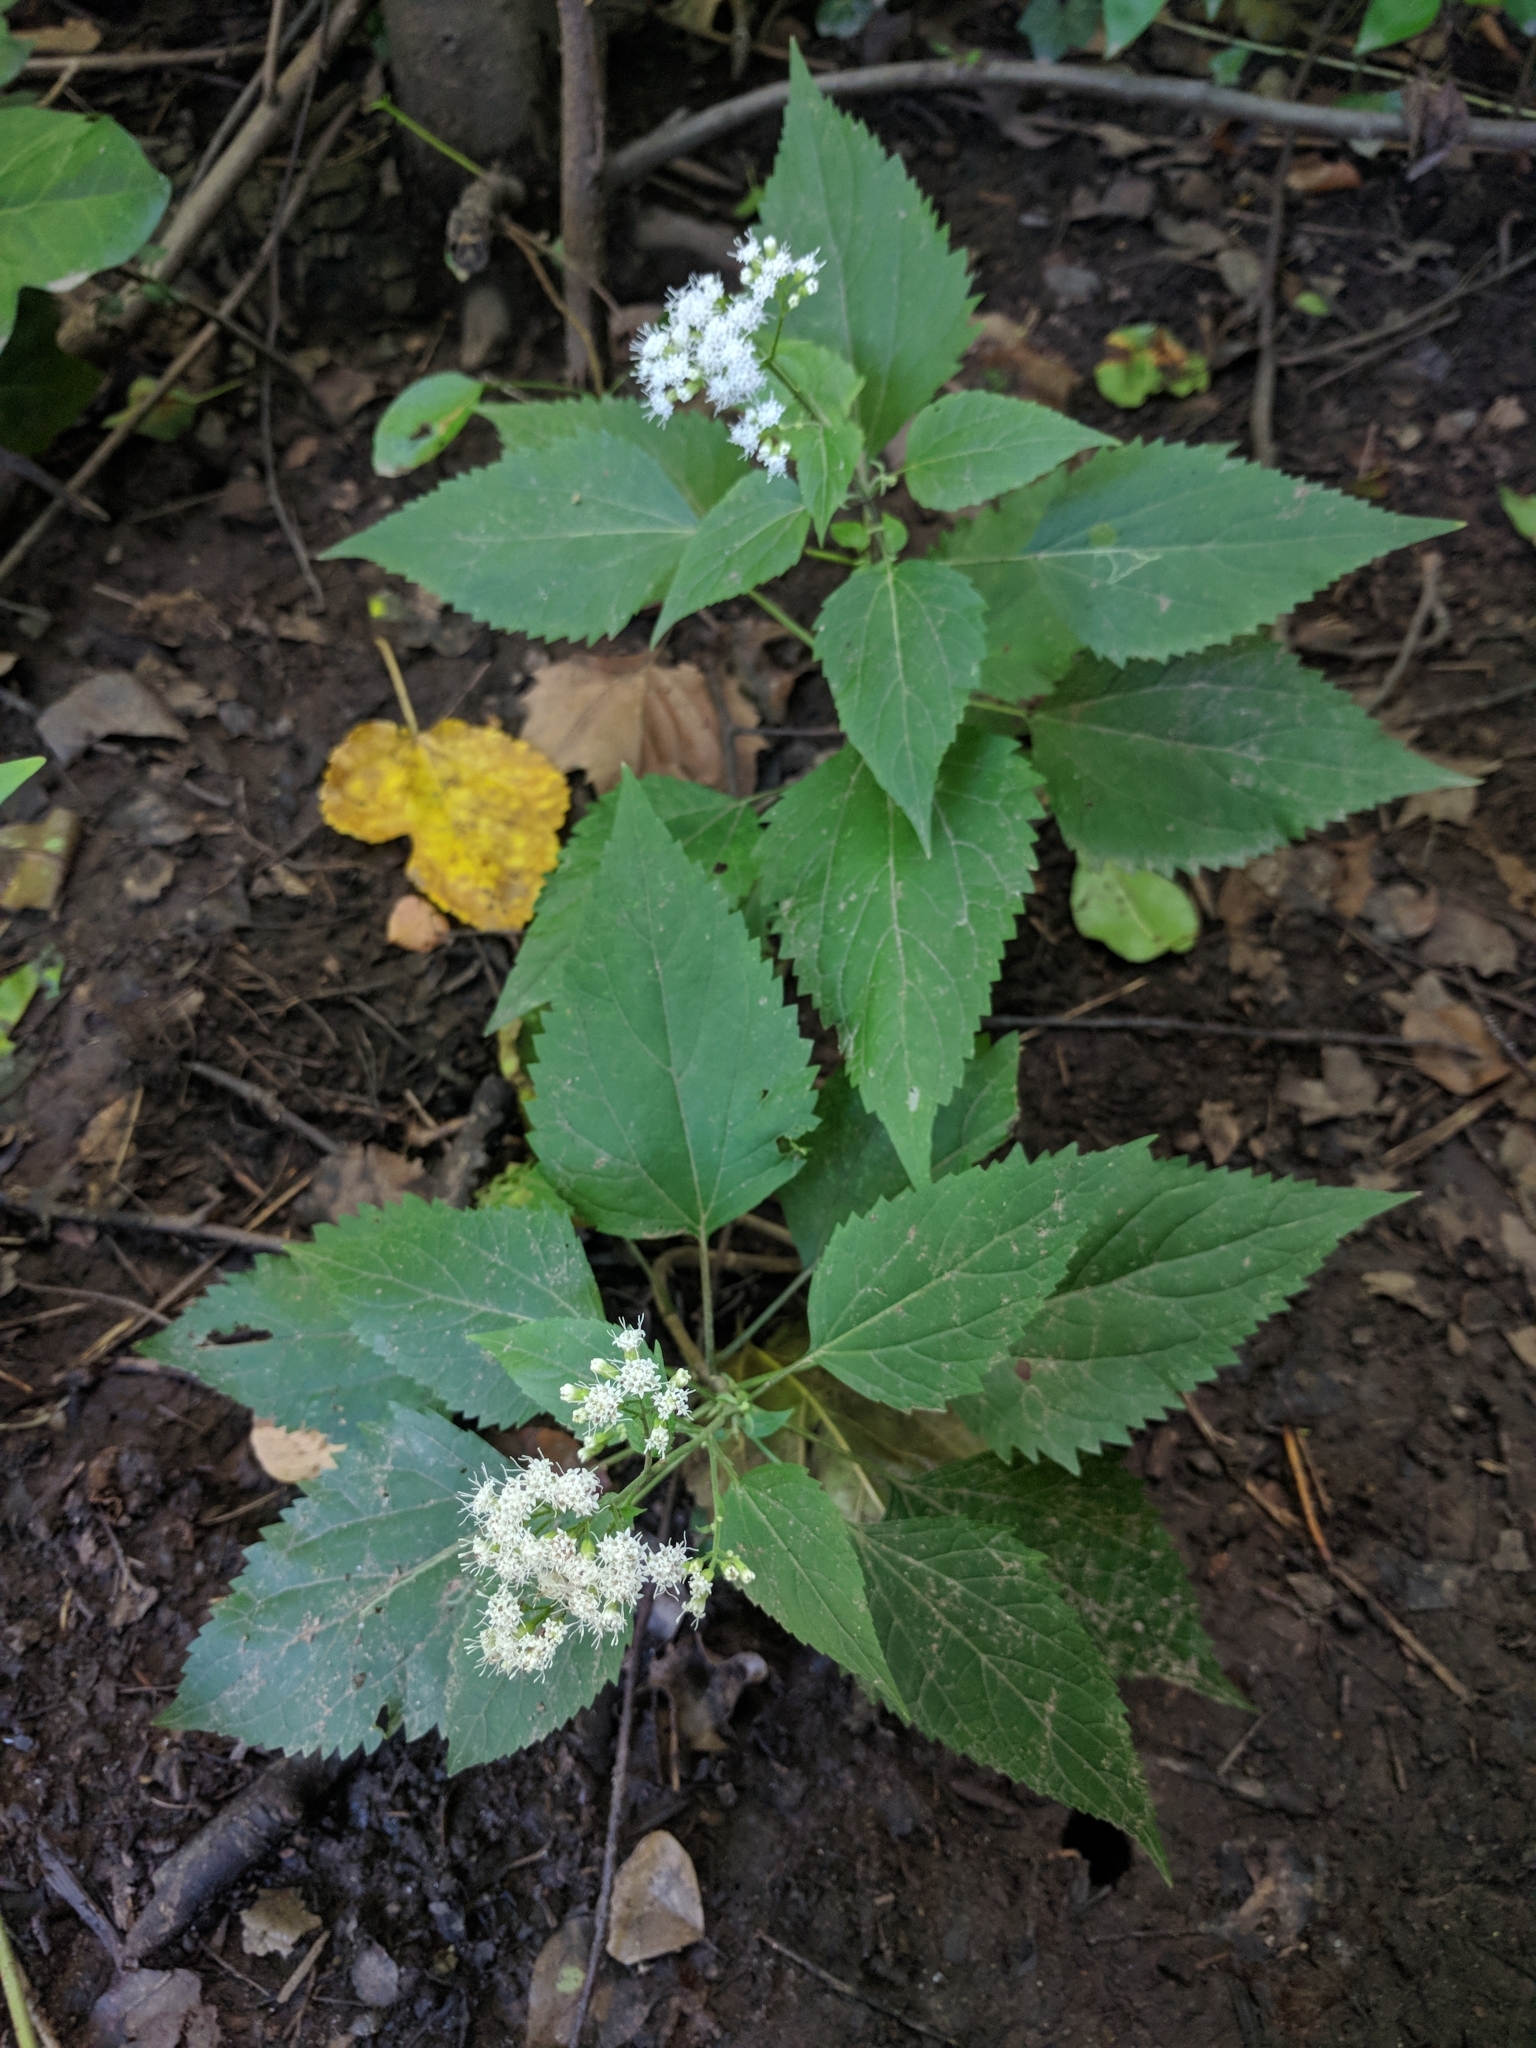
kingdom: Plantae
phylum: Tracheophyta
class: Magnoliopsida
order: Asterales
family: Asteraceae
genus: Ageratina
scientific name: Ageratina altissima
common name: White snakeroot
